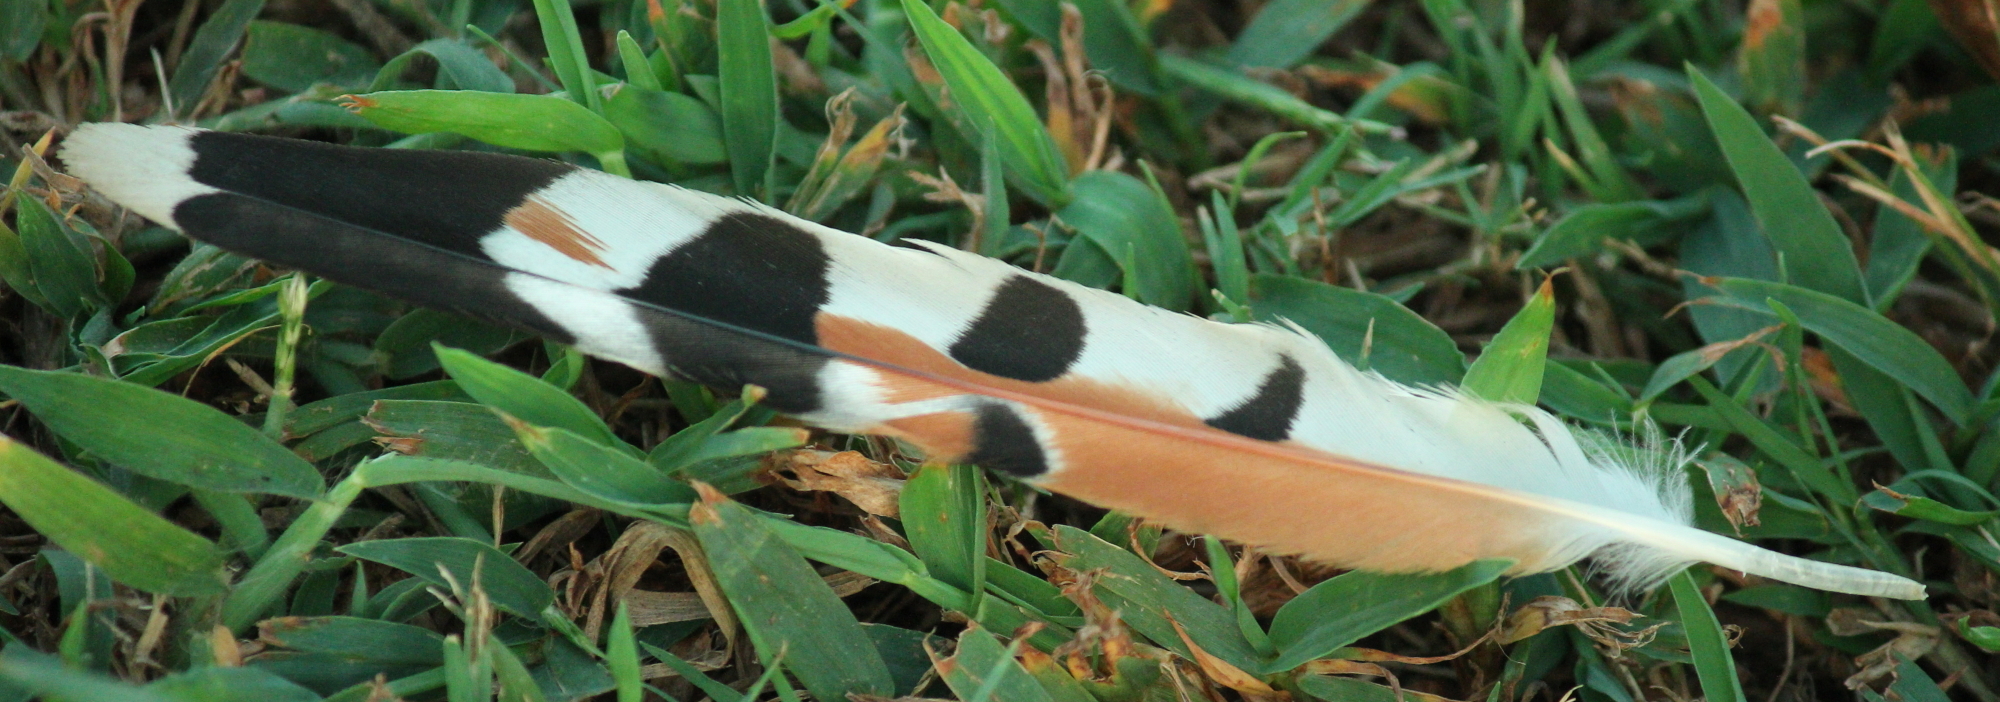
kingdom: Animalia
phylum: Chordata
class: Aves
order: Falconiformes
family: Falconidae
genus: Falco
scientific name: Falco sparverius
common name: American kestrel
